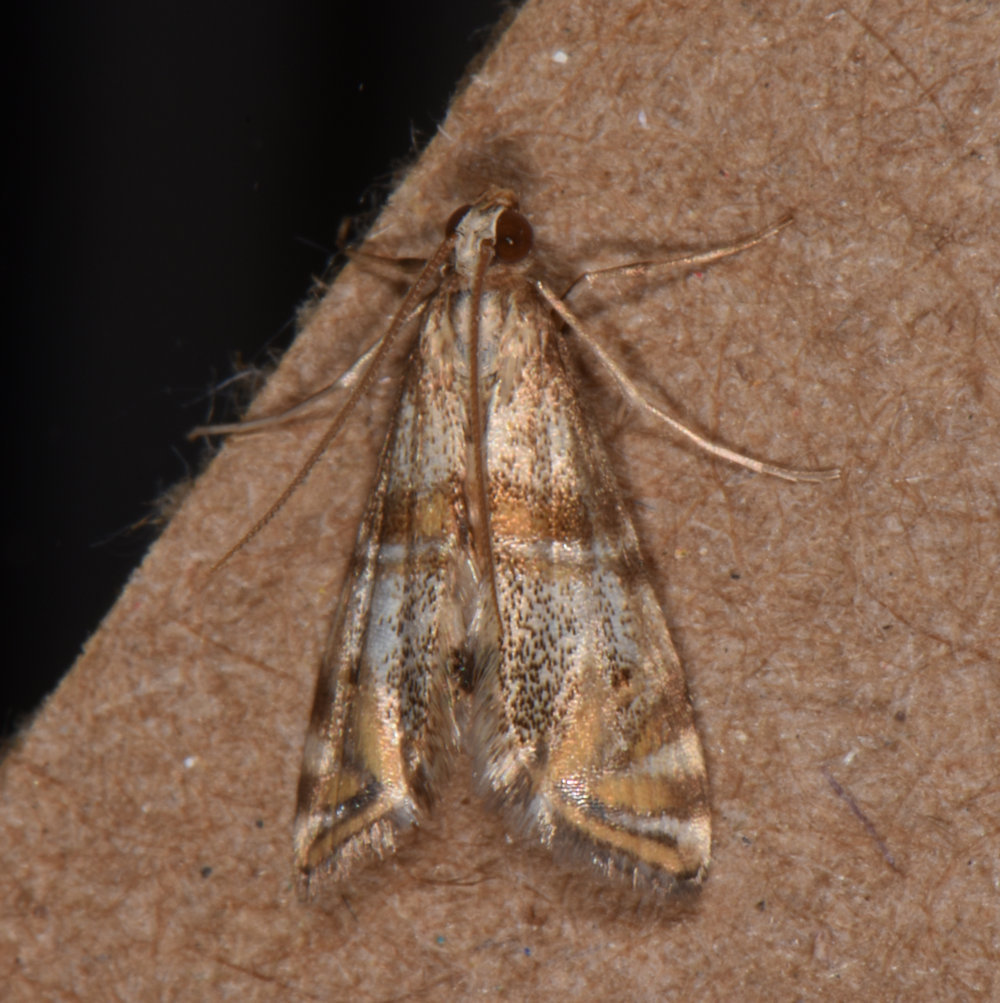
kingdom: Animalia
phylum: Arthropoda
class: Insecta
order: Lepidoptera
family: Crambidae
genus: Petrophila
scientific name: Petrophila bifascialis
